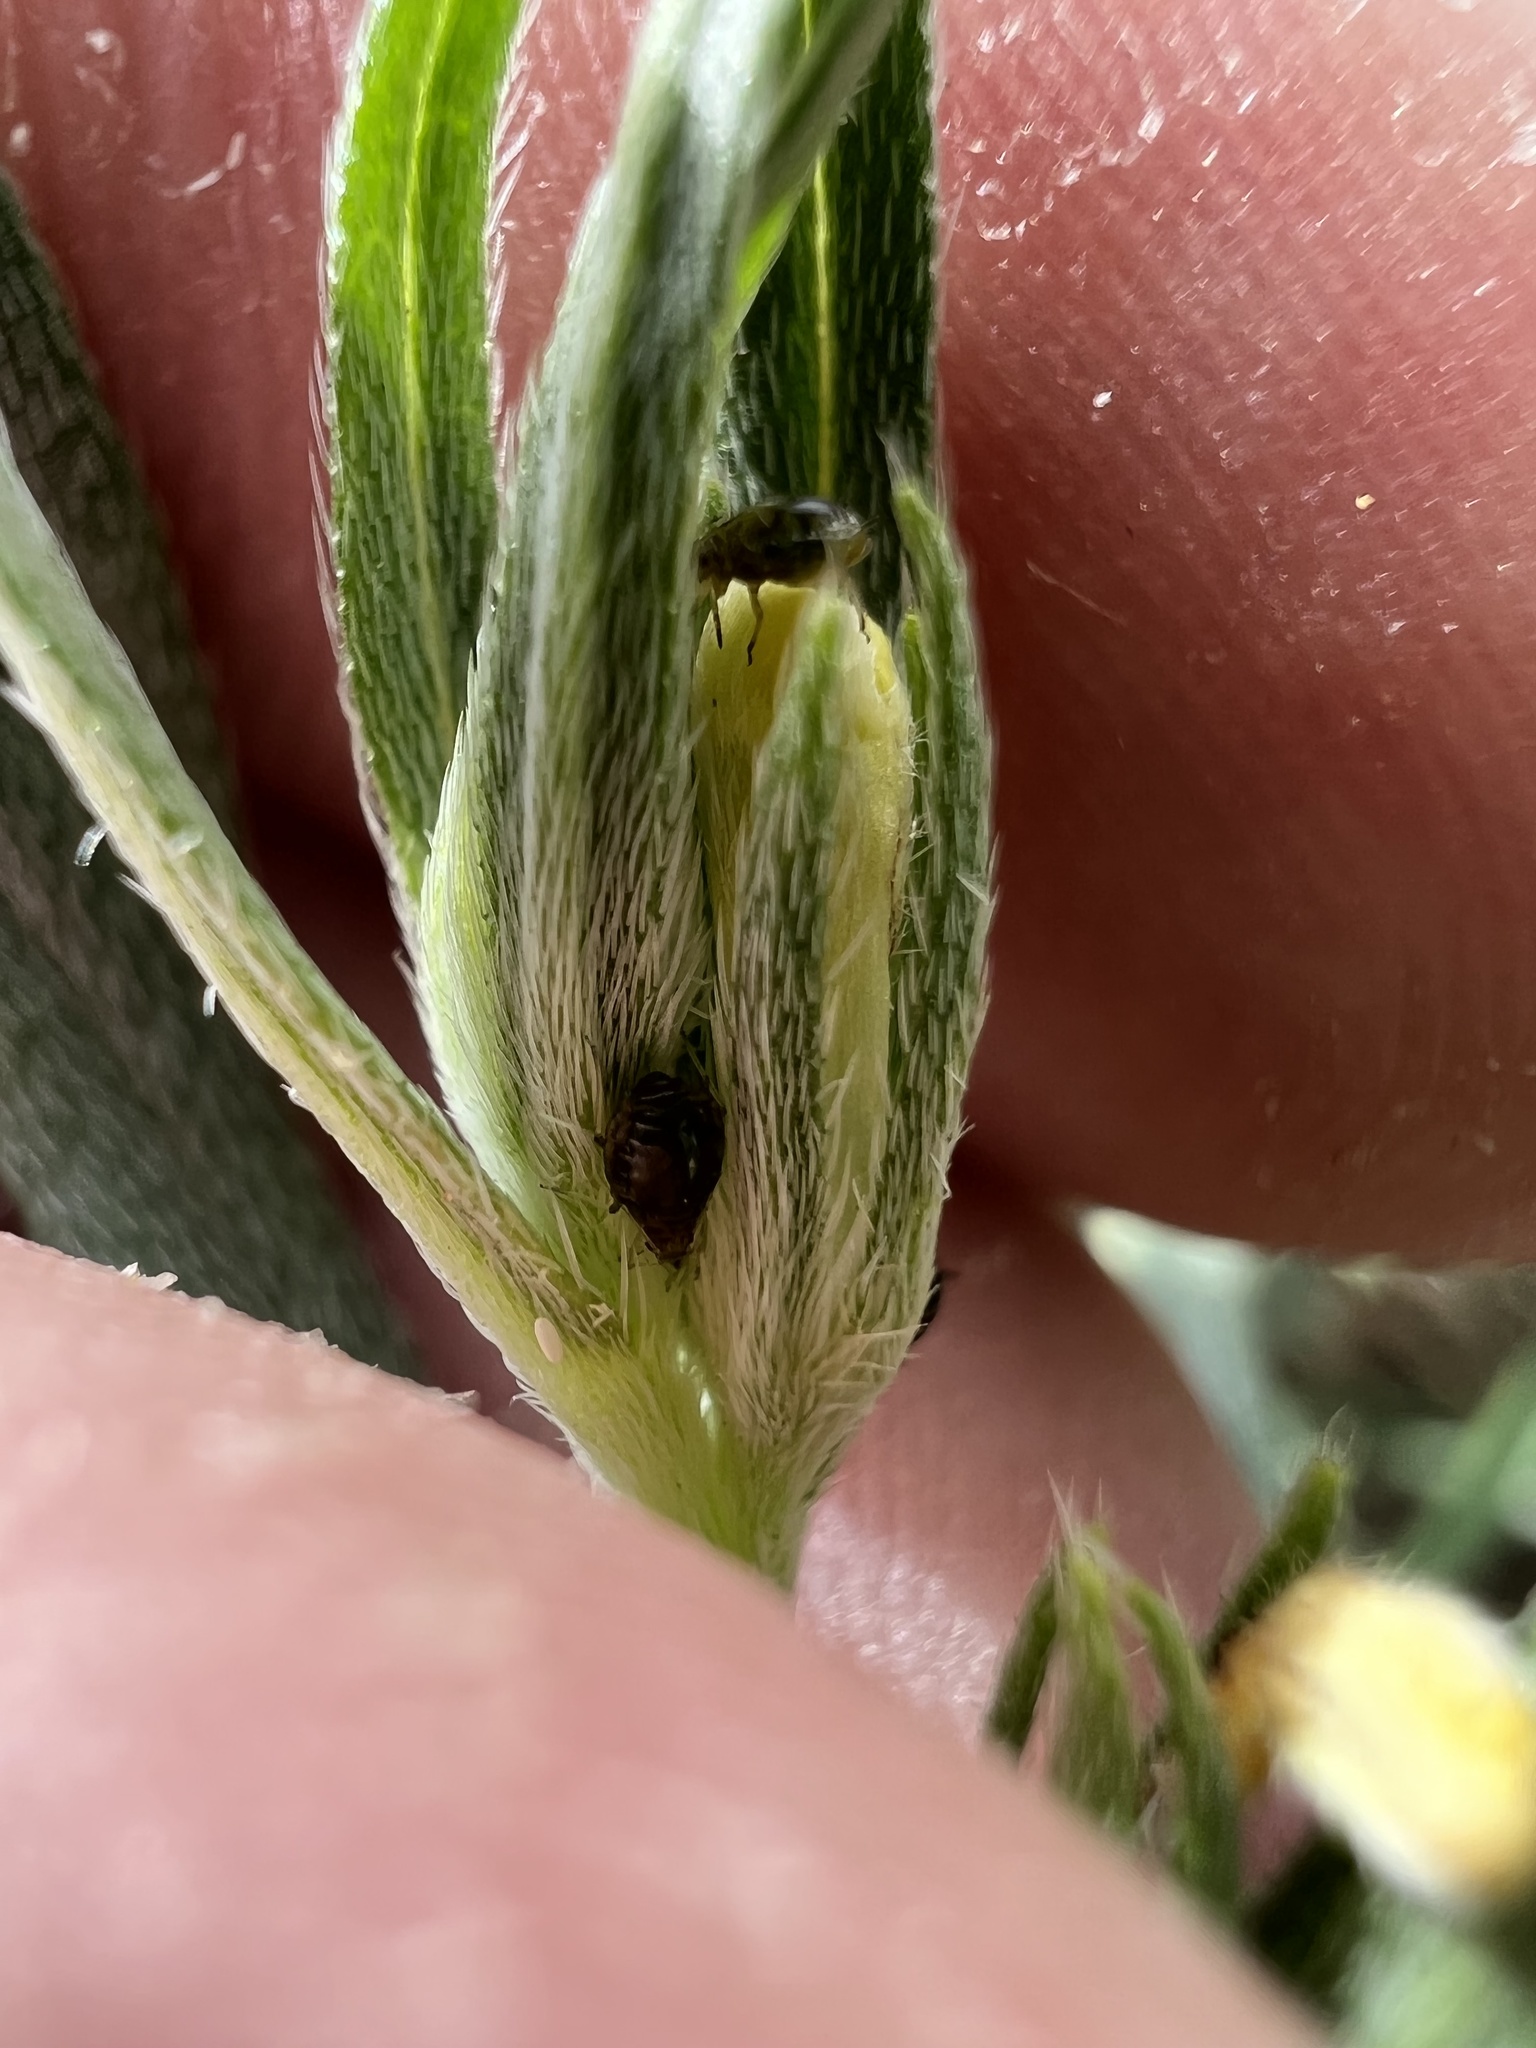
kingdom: Plantae
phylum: Tracheophyta
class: Magnoliopsida
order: Boraginales
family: Boraginaceae
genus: Lithospermum
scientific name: Lithospermum incisum
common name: Fringed gromwell
